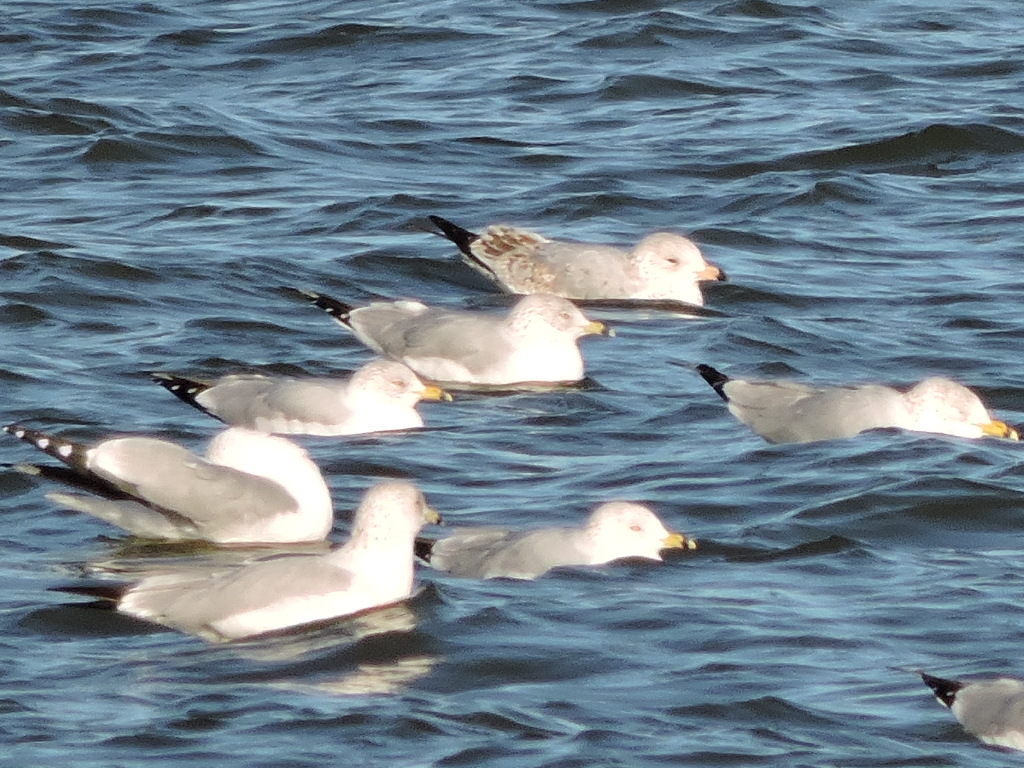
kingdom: Animalia
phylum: Chordata
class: Aves
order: Charadriiformes
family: Laridae
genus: Larus
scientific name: Larus delawarensis
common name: Ring-billed gull
